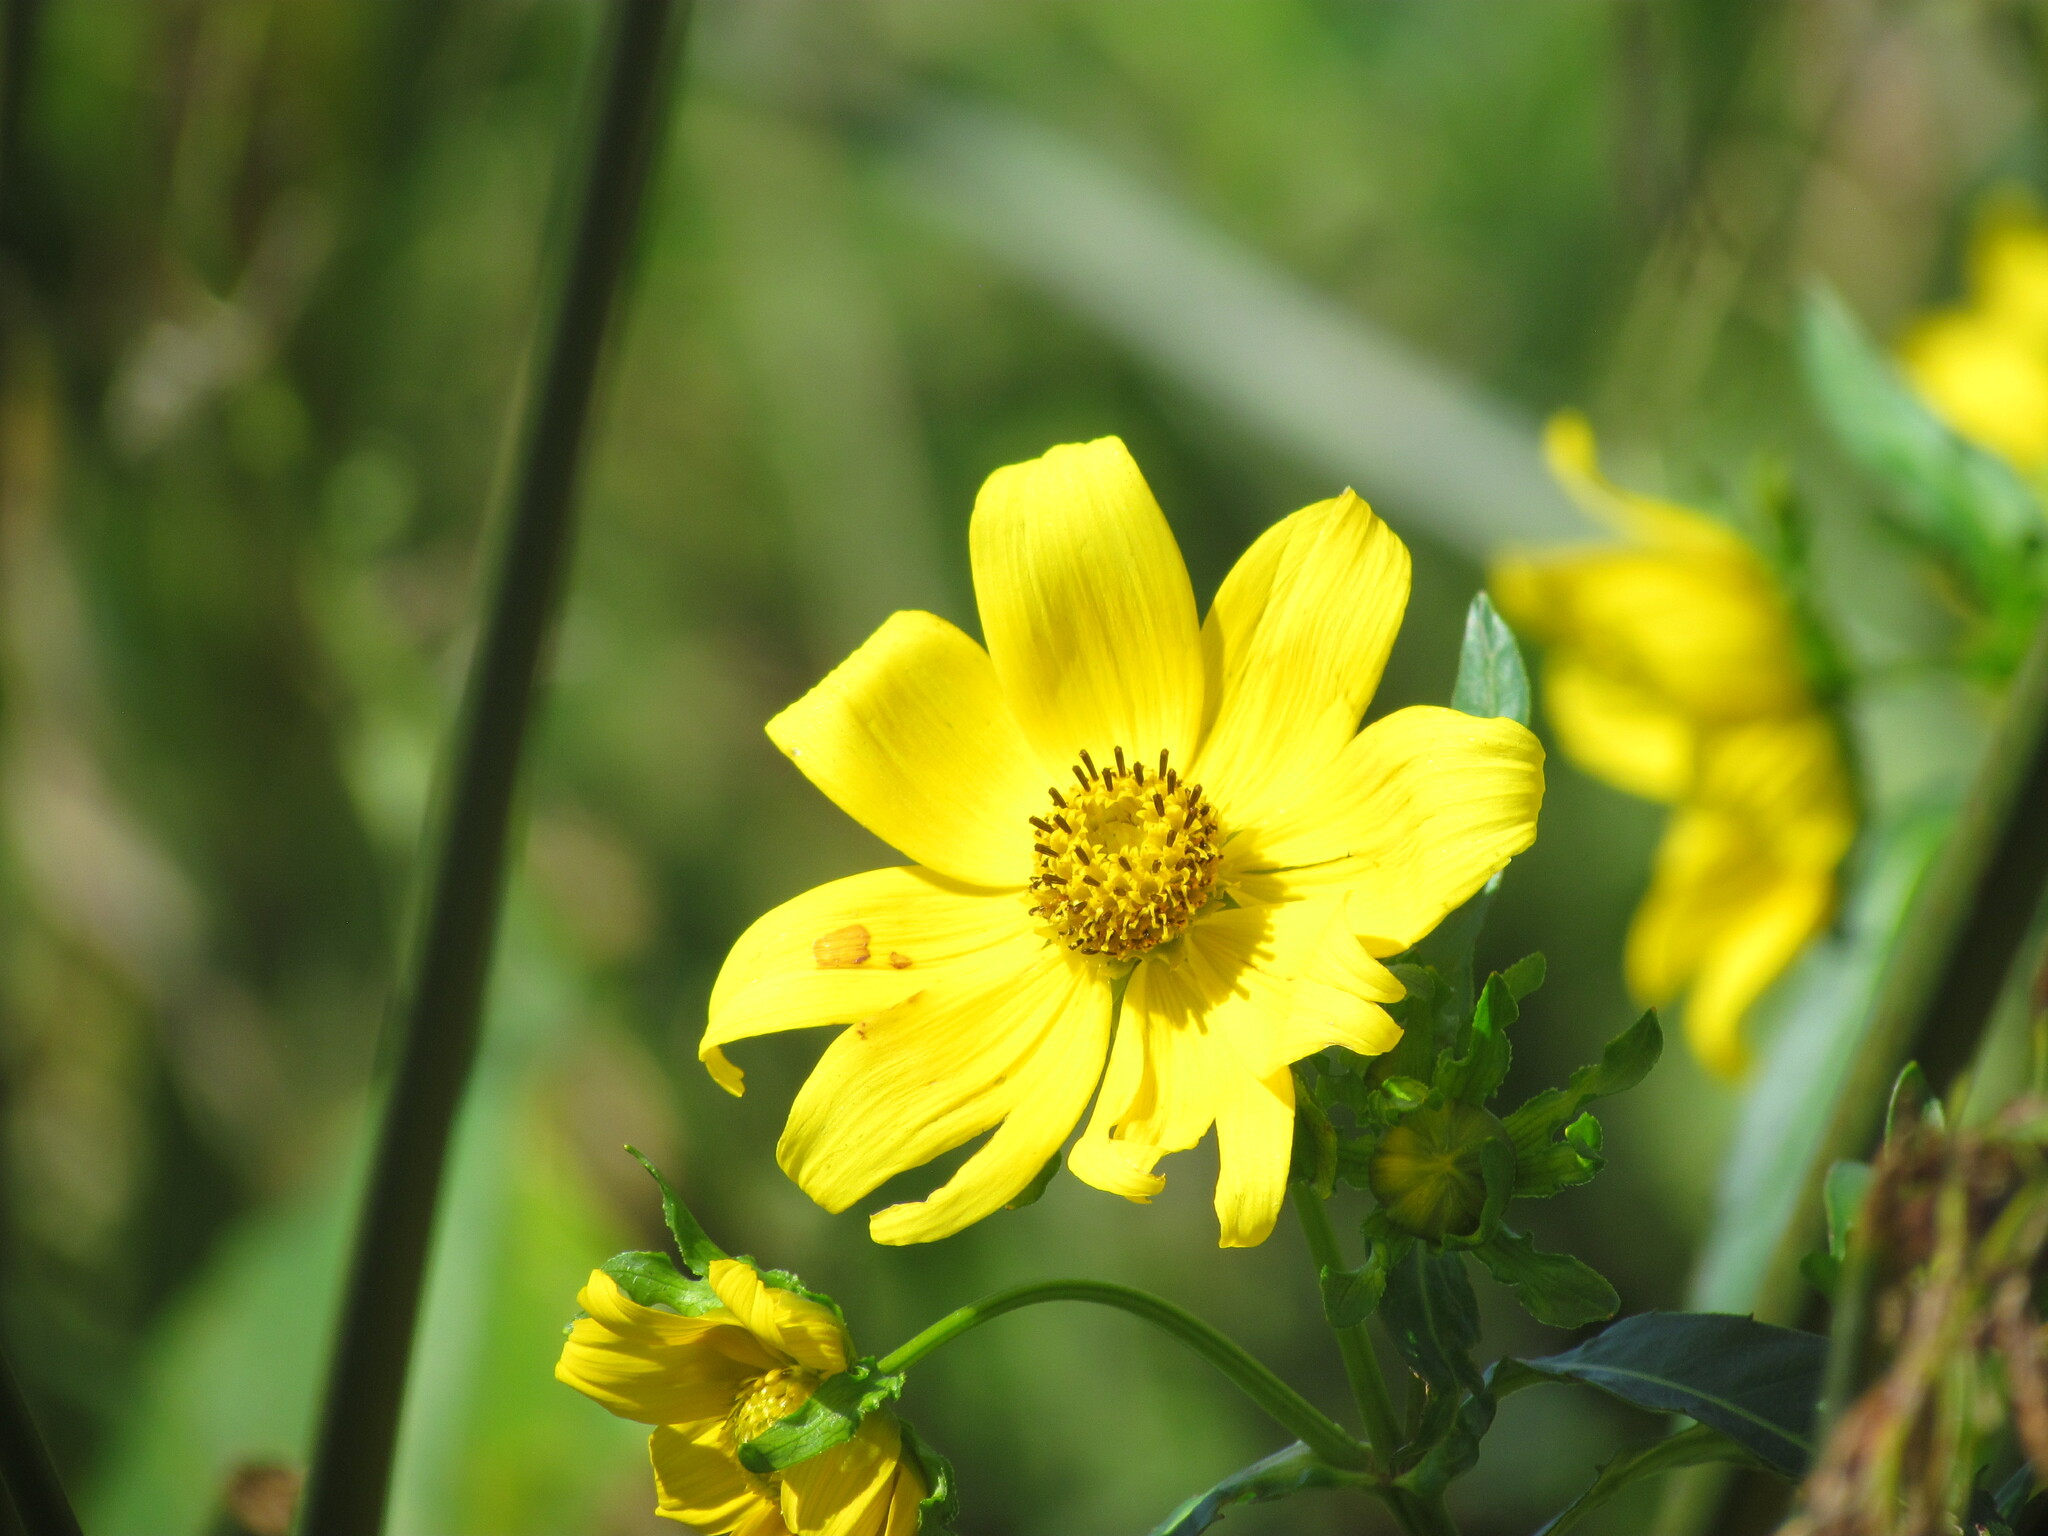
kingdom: Plantae
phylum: Tracheophyta
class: Magnoliopsida
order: Asterales
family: Asteraceae
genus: Bidens
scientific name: Bidens laevis
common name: Larger bur-marigold
